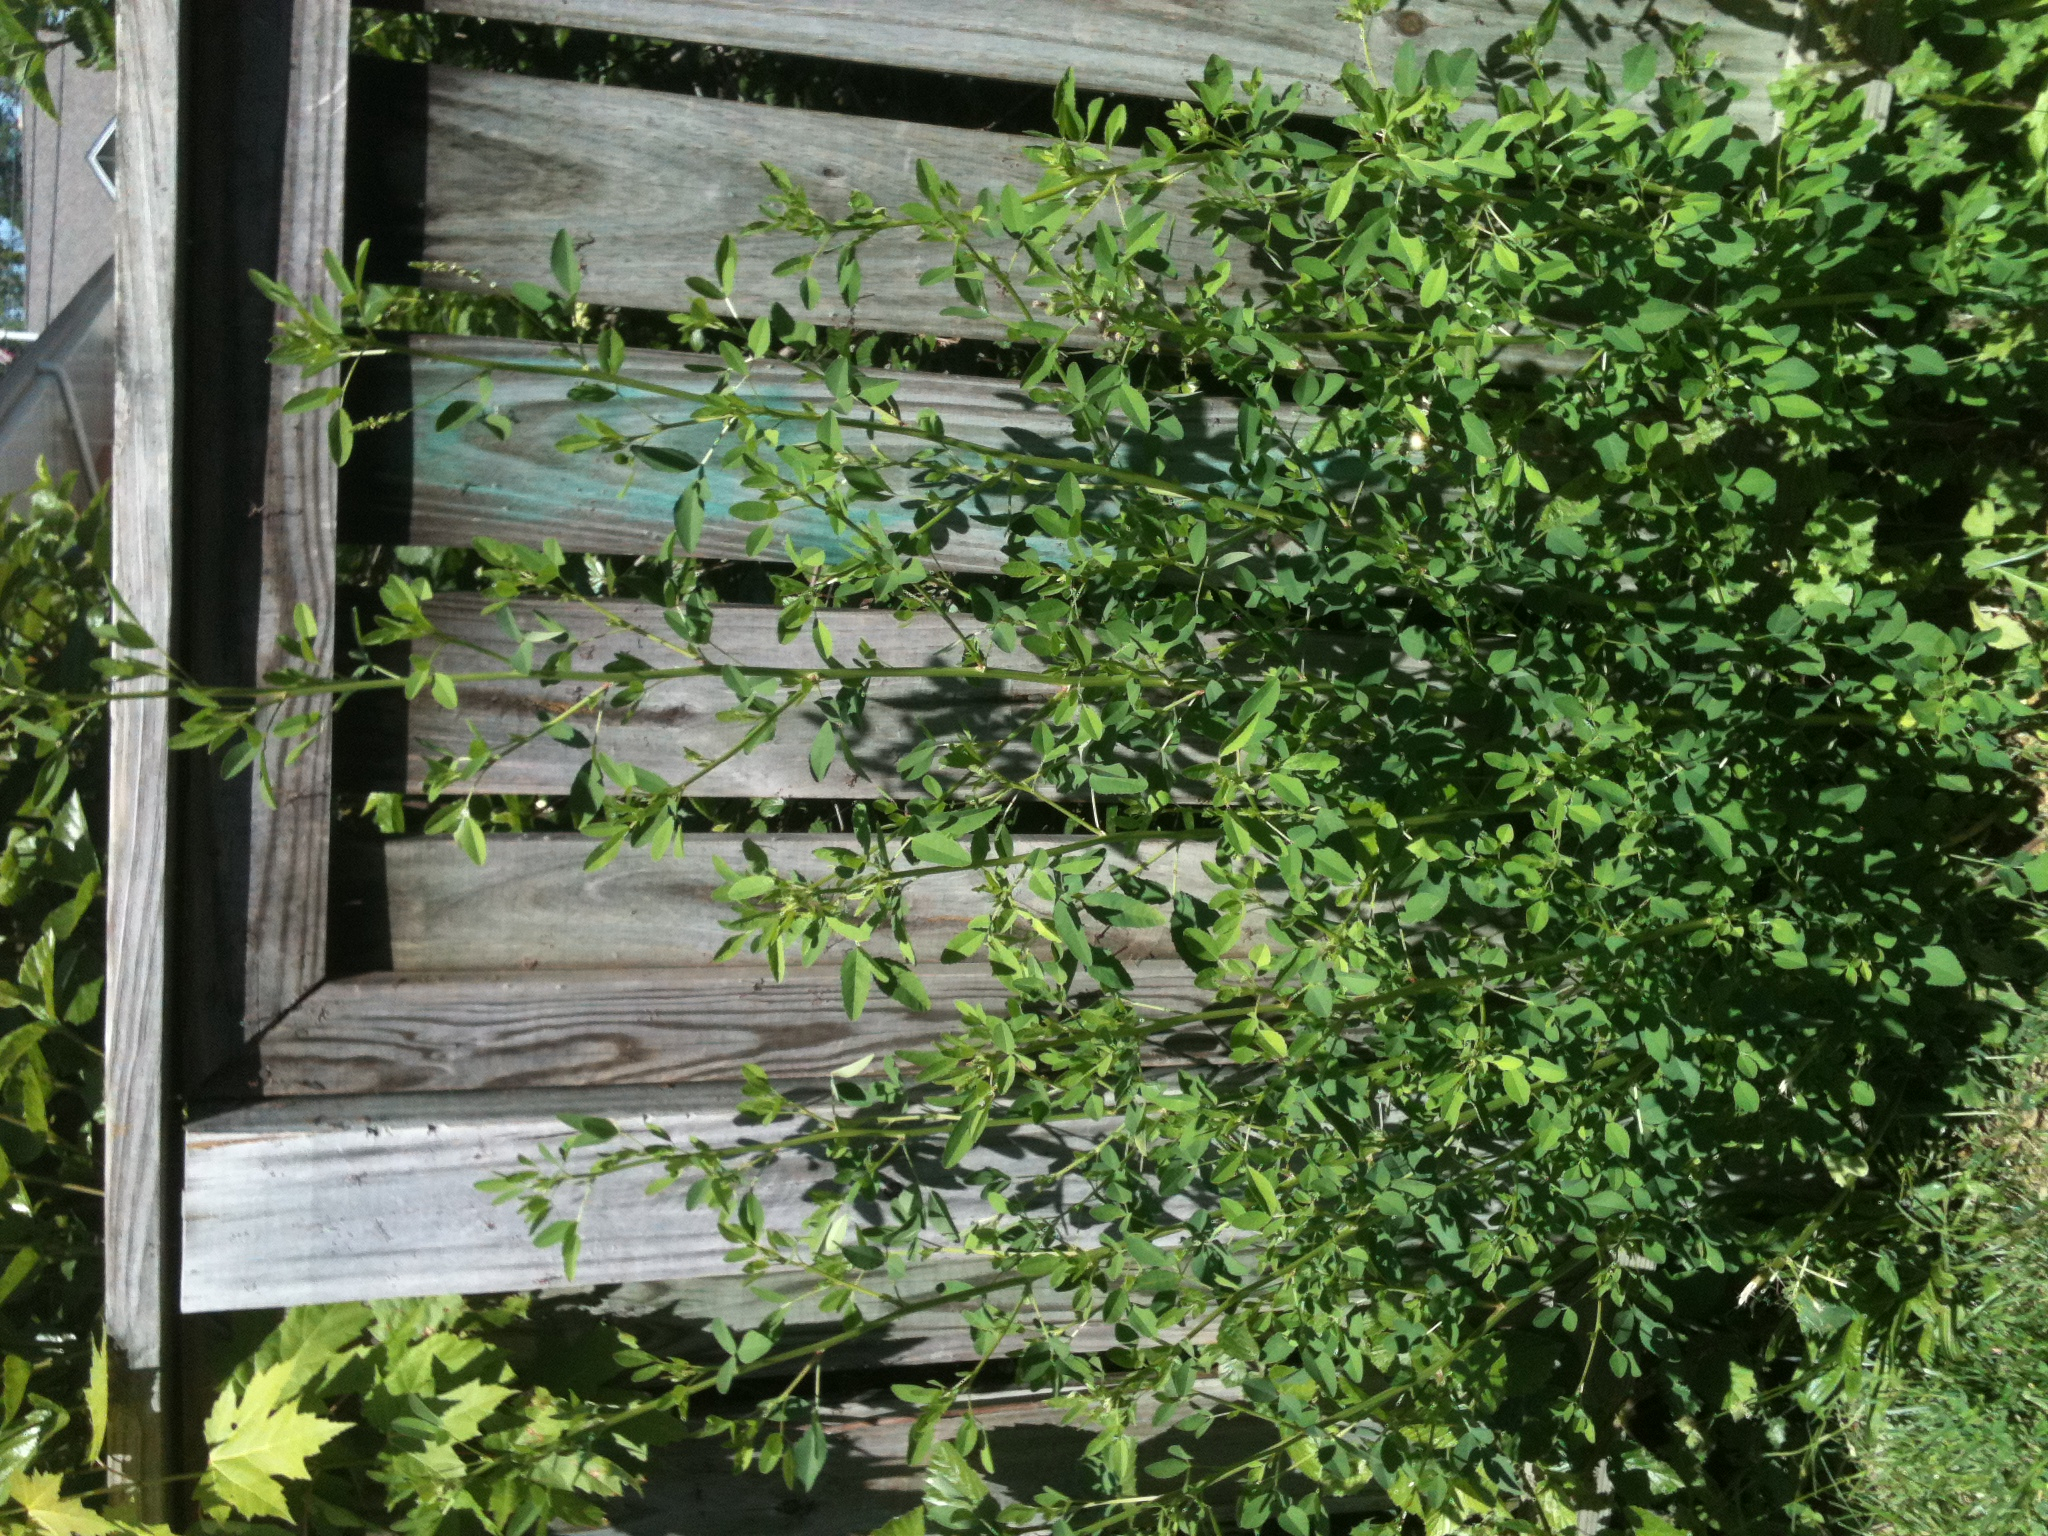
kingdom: Plantae
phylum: Tracheophyta
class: Magnoliopsida
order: Fabales
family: Fabaceae
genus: Melilotus
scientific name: Melilotus albus
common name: White melilot
